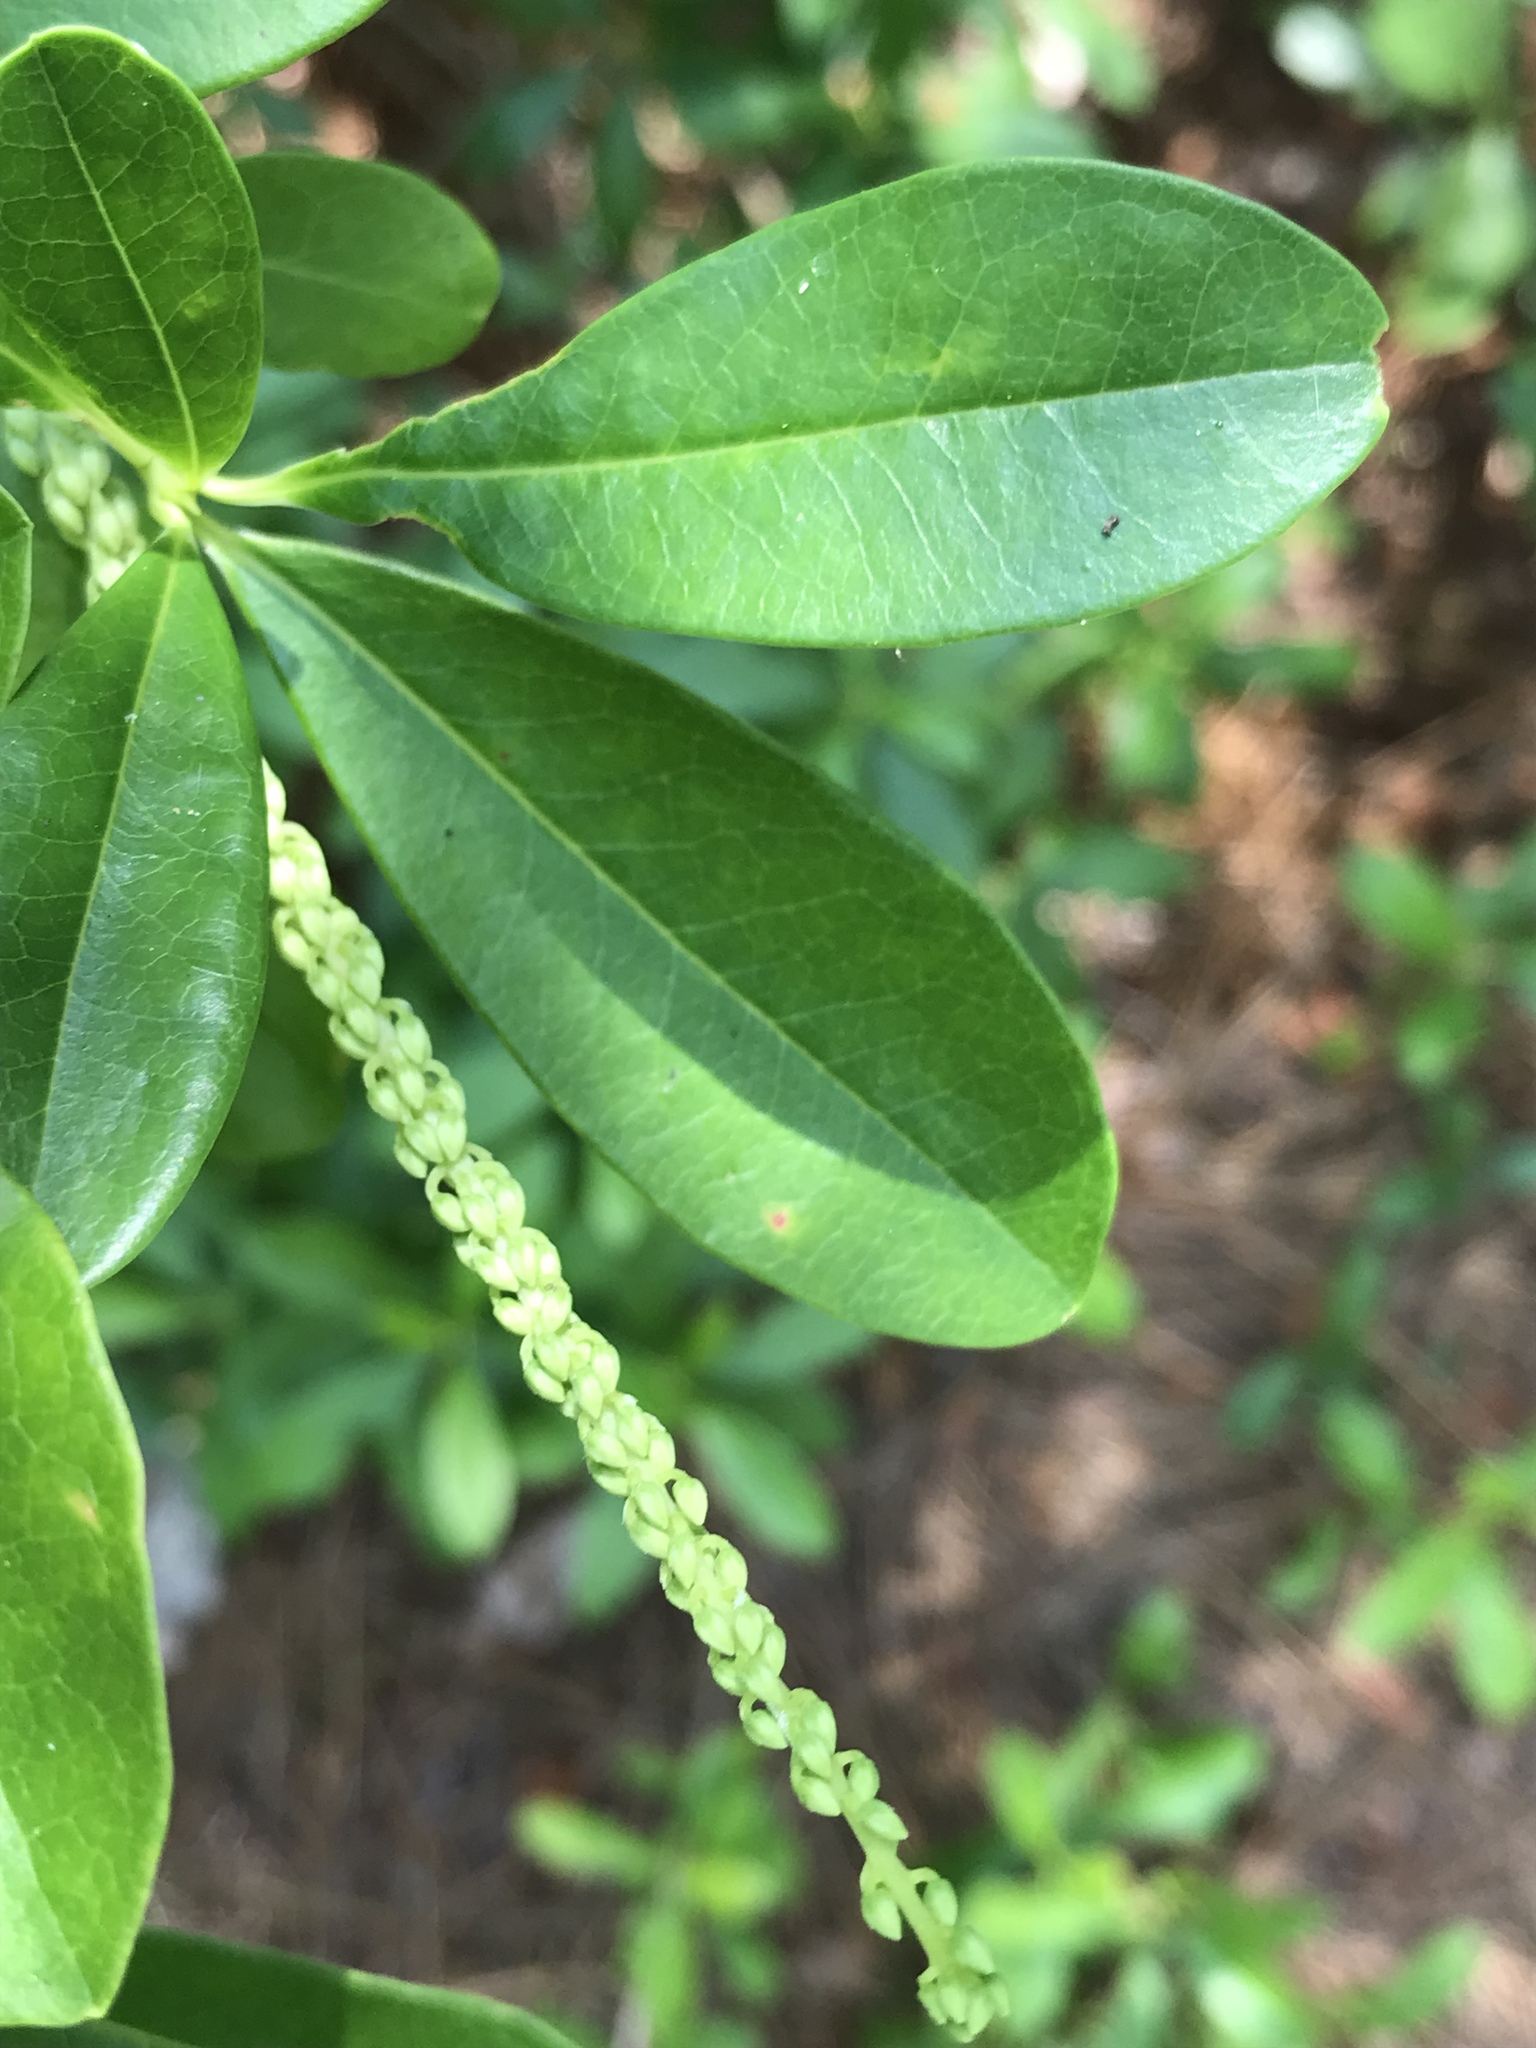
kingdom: Plantae
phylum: Tracheophyta
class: Magnoliopsida
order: Ericales
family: Cyrillaceae
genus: Cyrilla
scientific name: Cyrilla racemiflora
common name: Black titi
